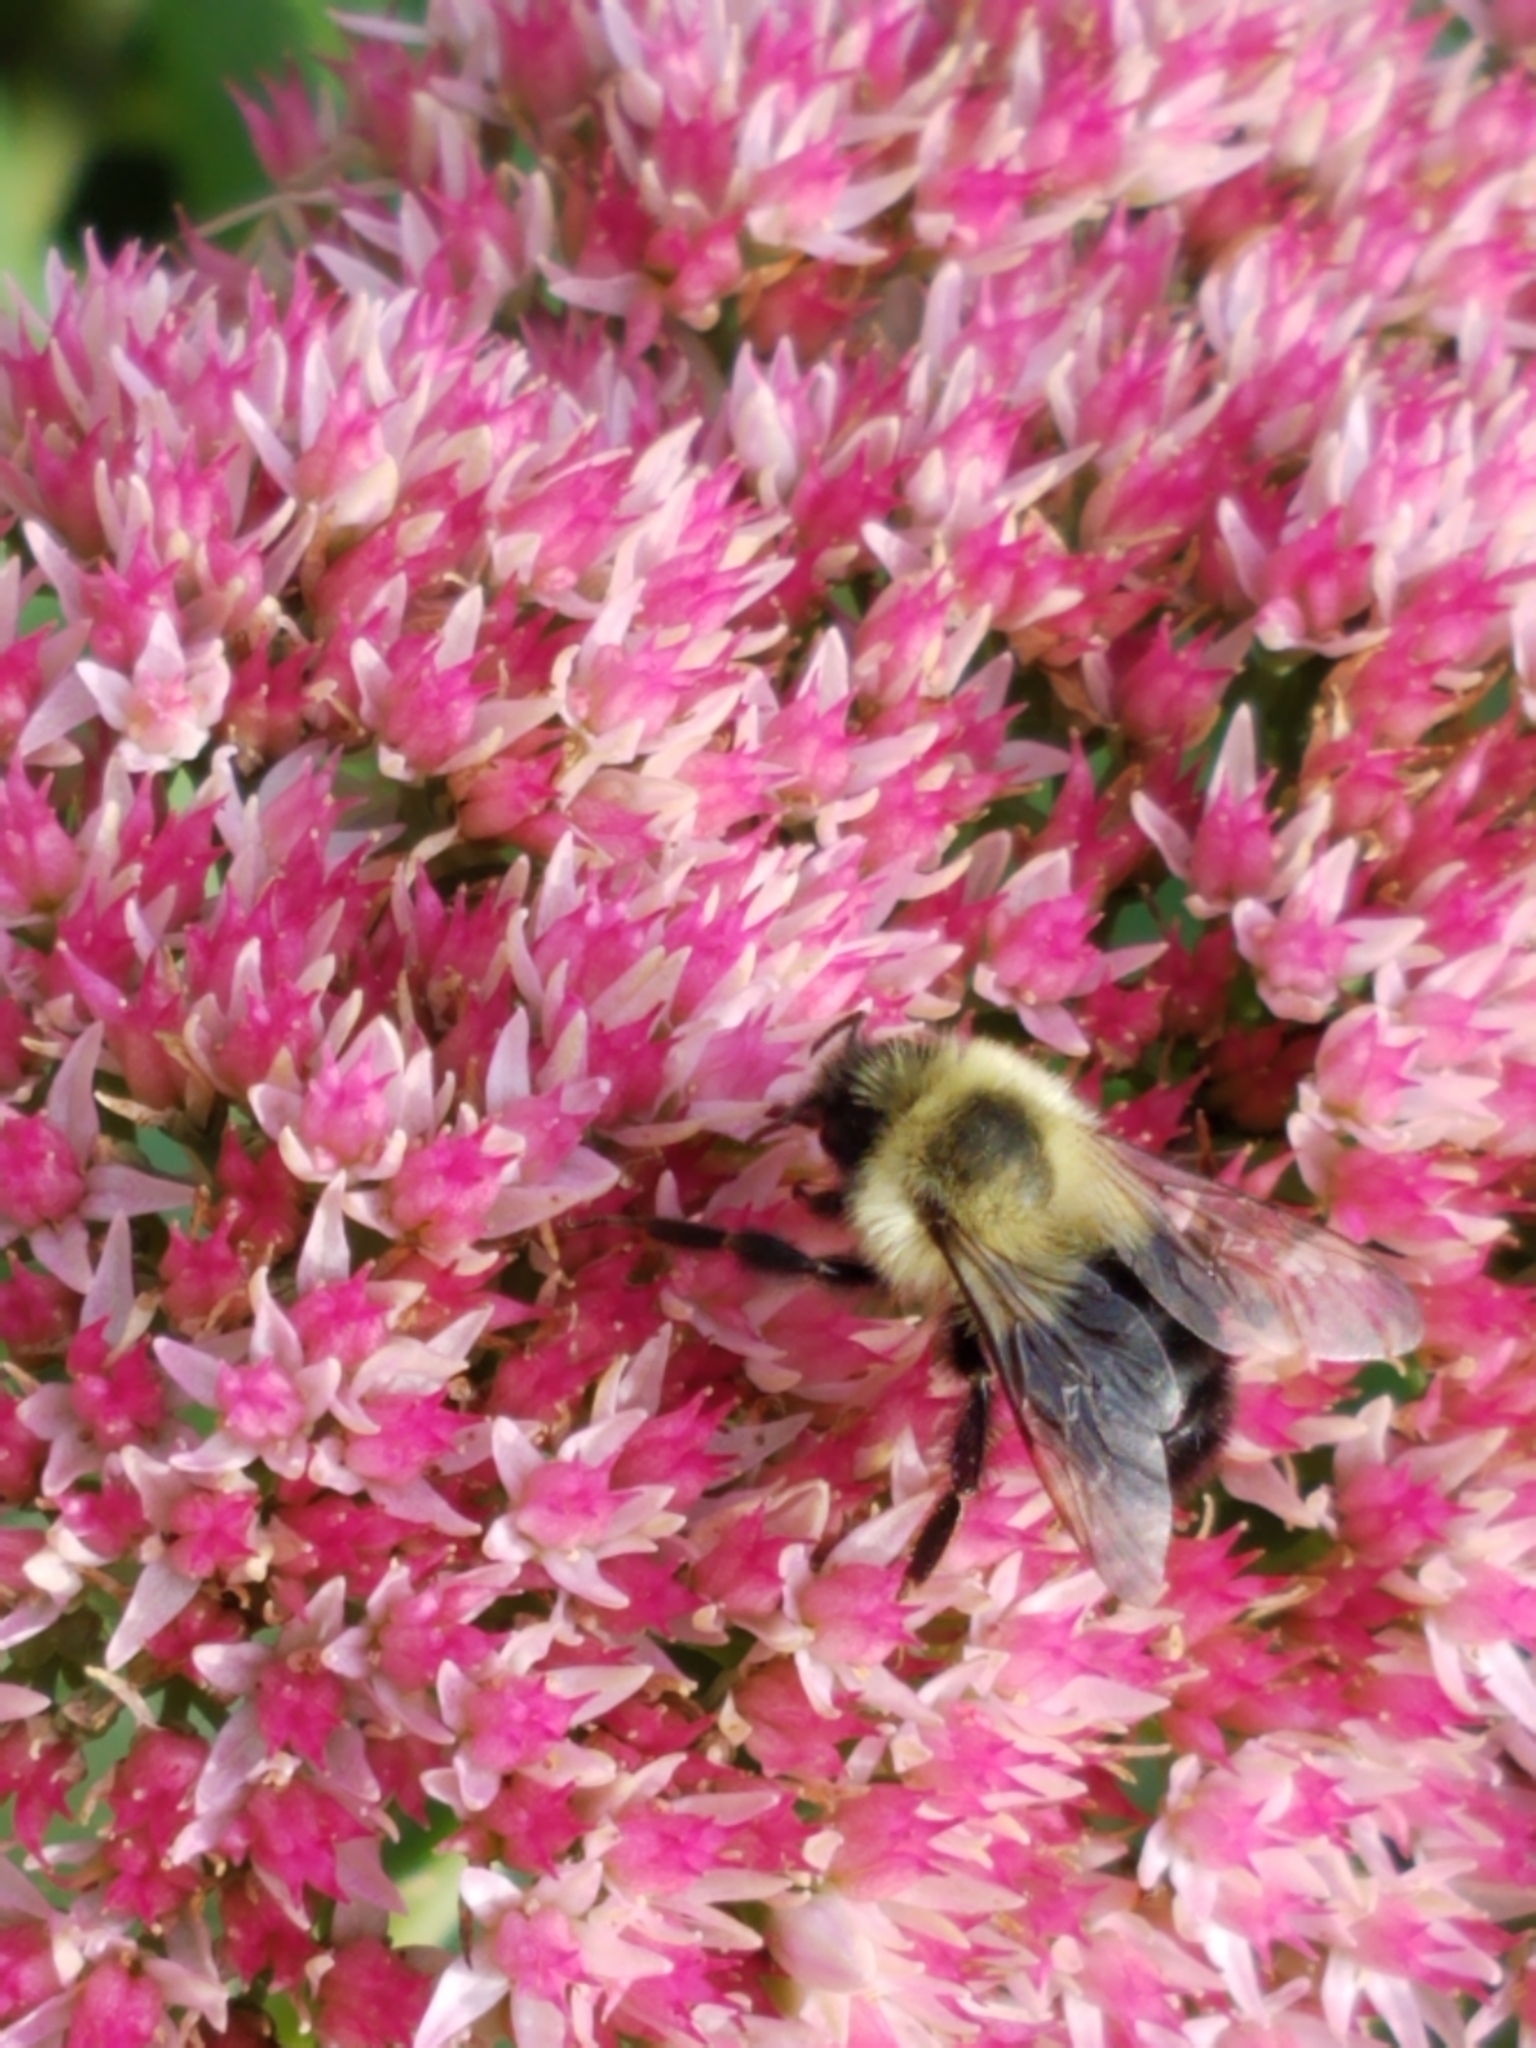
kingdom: Animalia
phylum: Arthropoda
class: Insecta
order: Hymenoptera
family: Apidae
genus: Bombus
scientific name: Bombus impatiens
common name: Common eastern bumble bee
